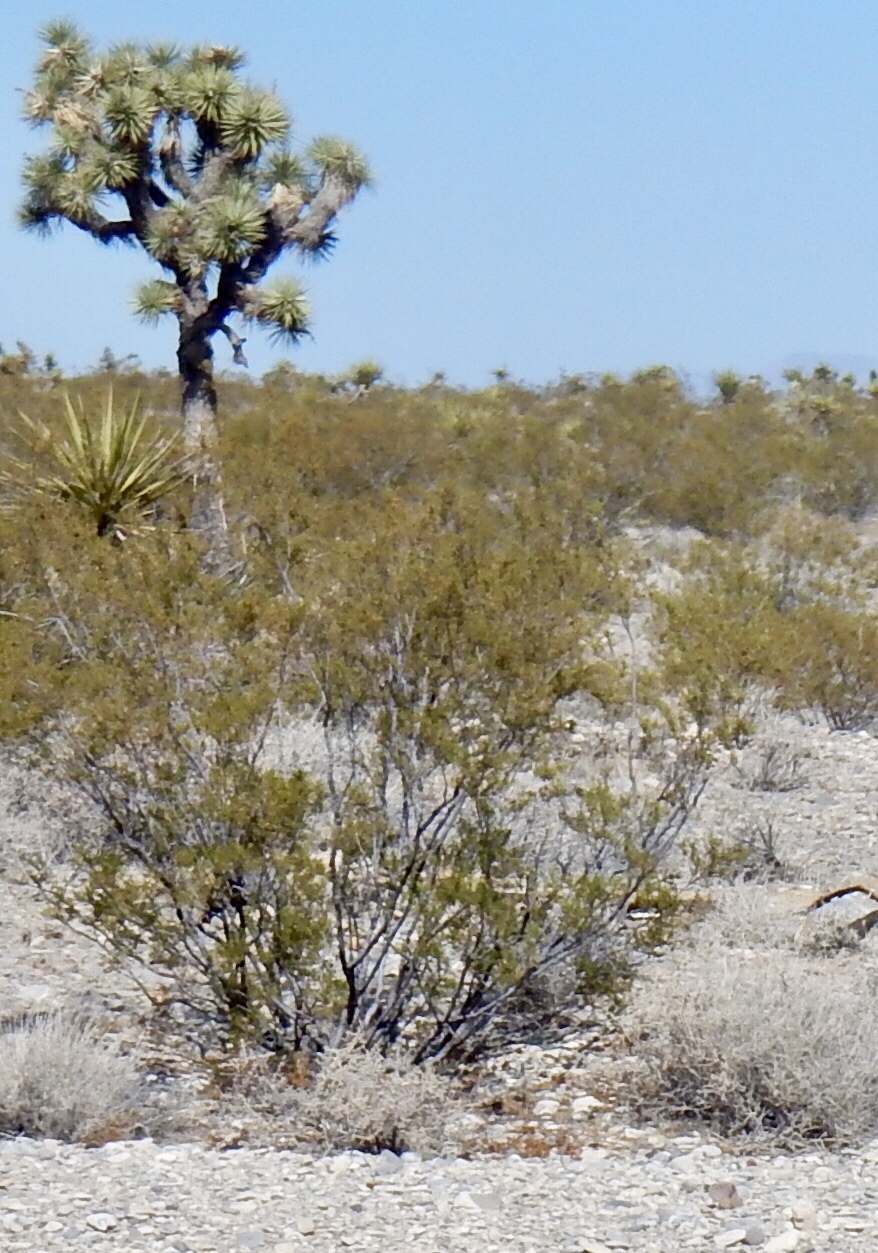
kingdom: Plantae
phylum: Tracheophyta
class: Magnoliopsida
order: Zygophyllales
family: Zygophyllaceae
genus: Larrea
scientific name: Larrea tridentata
